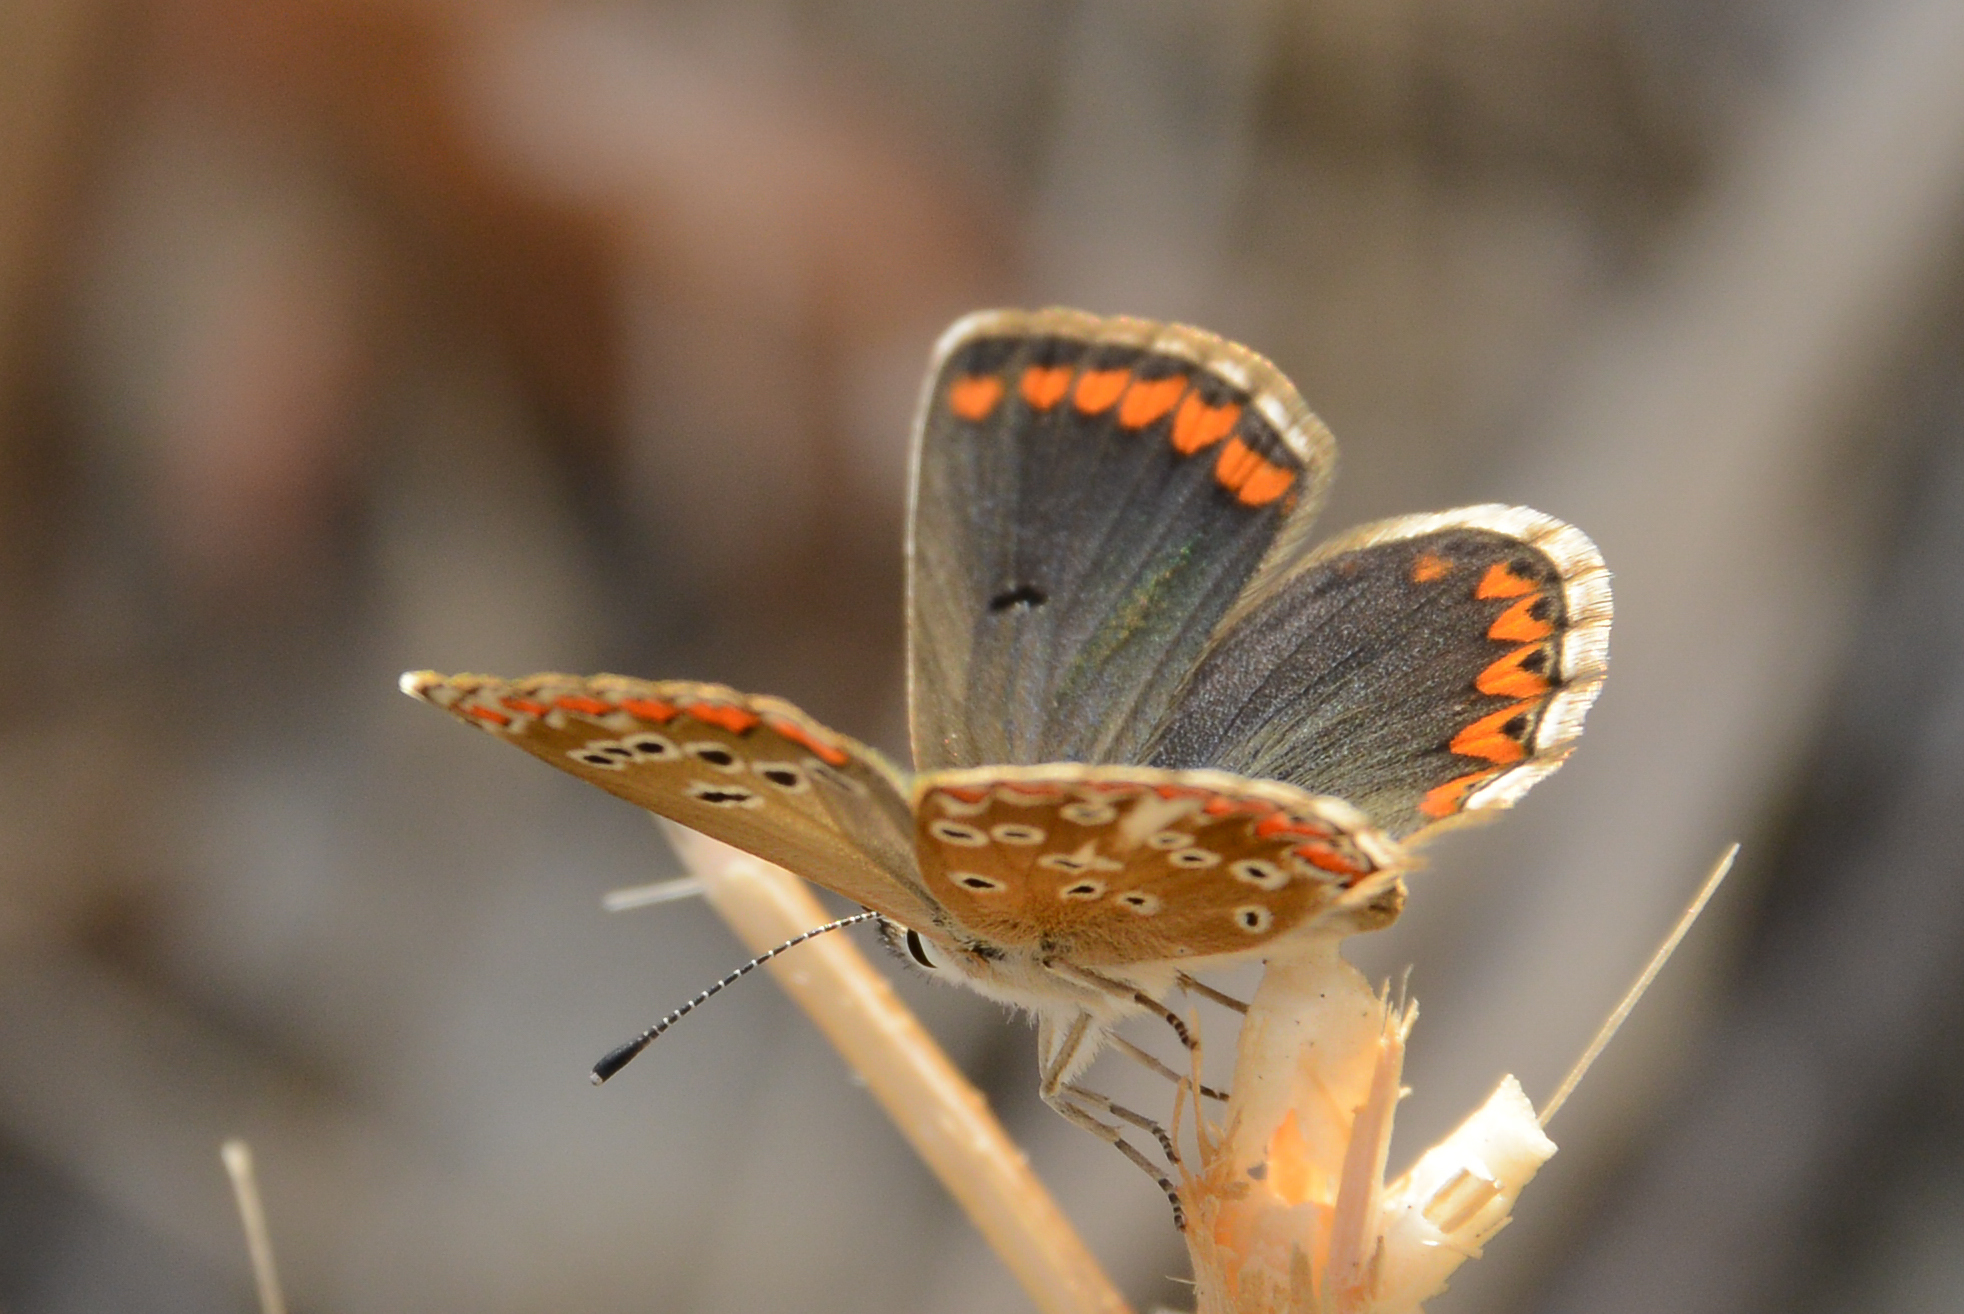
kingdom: Animalia
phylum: Arthropoda
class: Insecta
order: Lepidoptera
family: Lycaenidae
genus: Aricia
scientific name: Aricia agestis
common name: Brown argus
